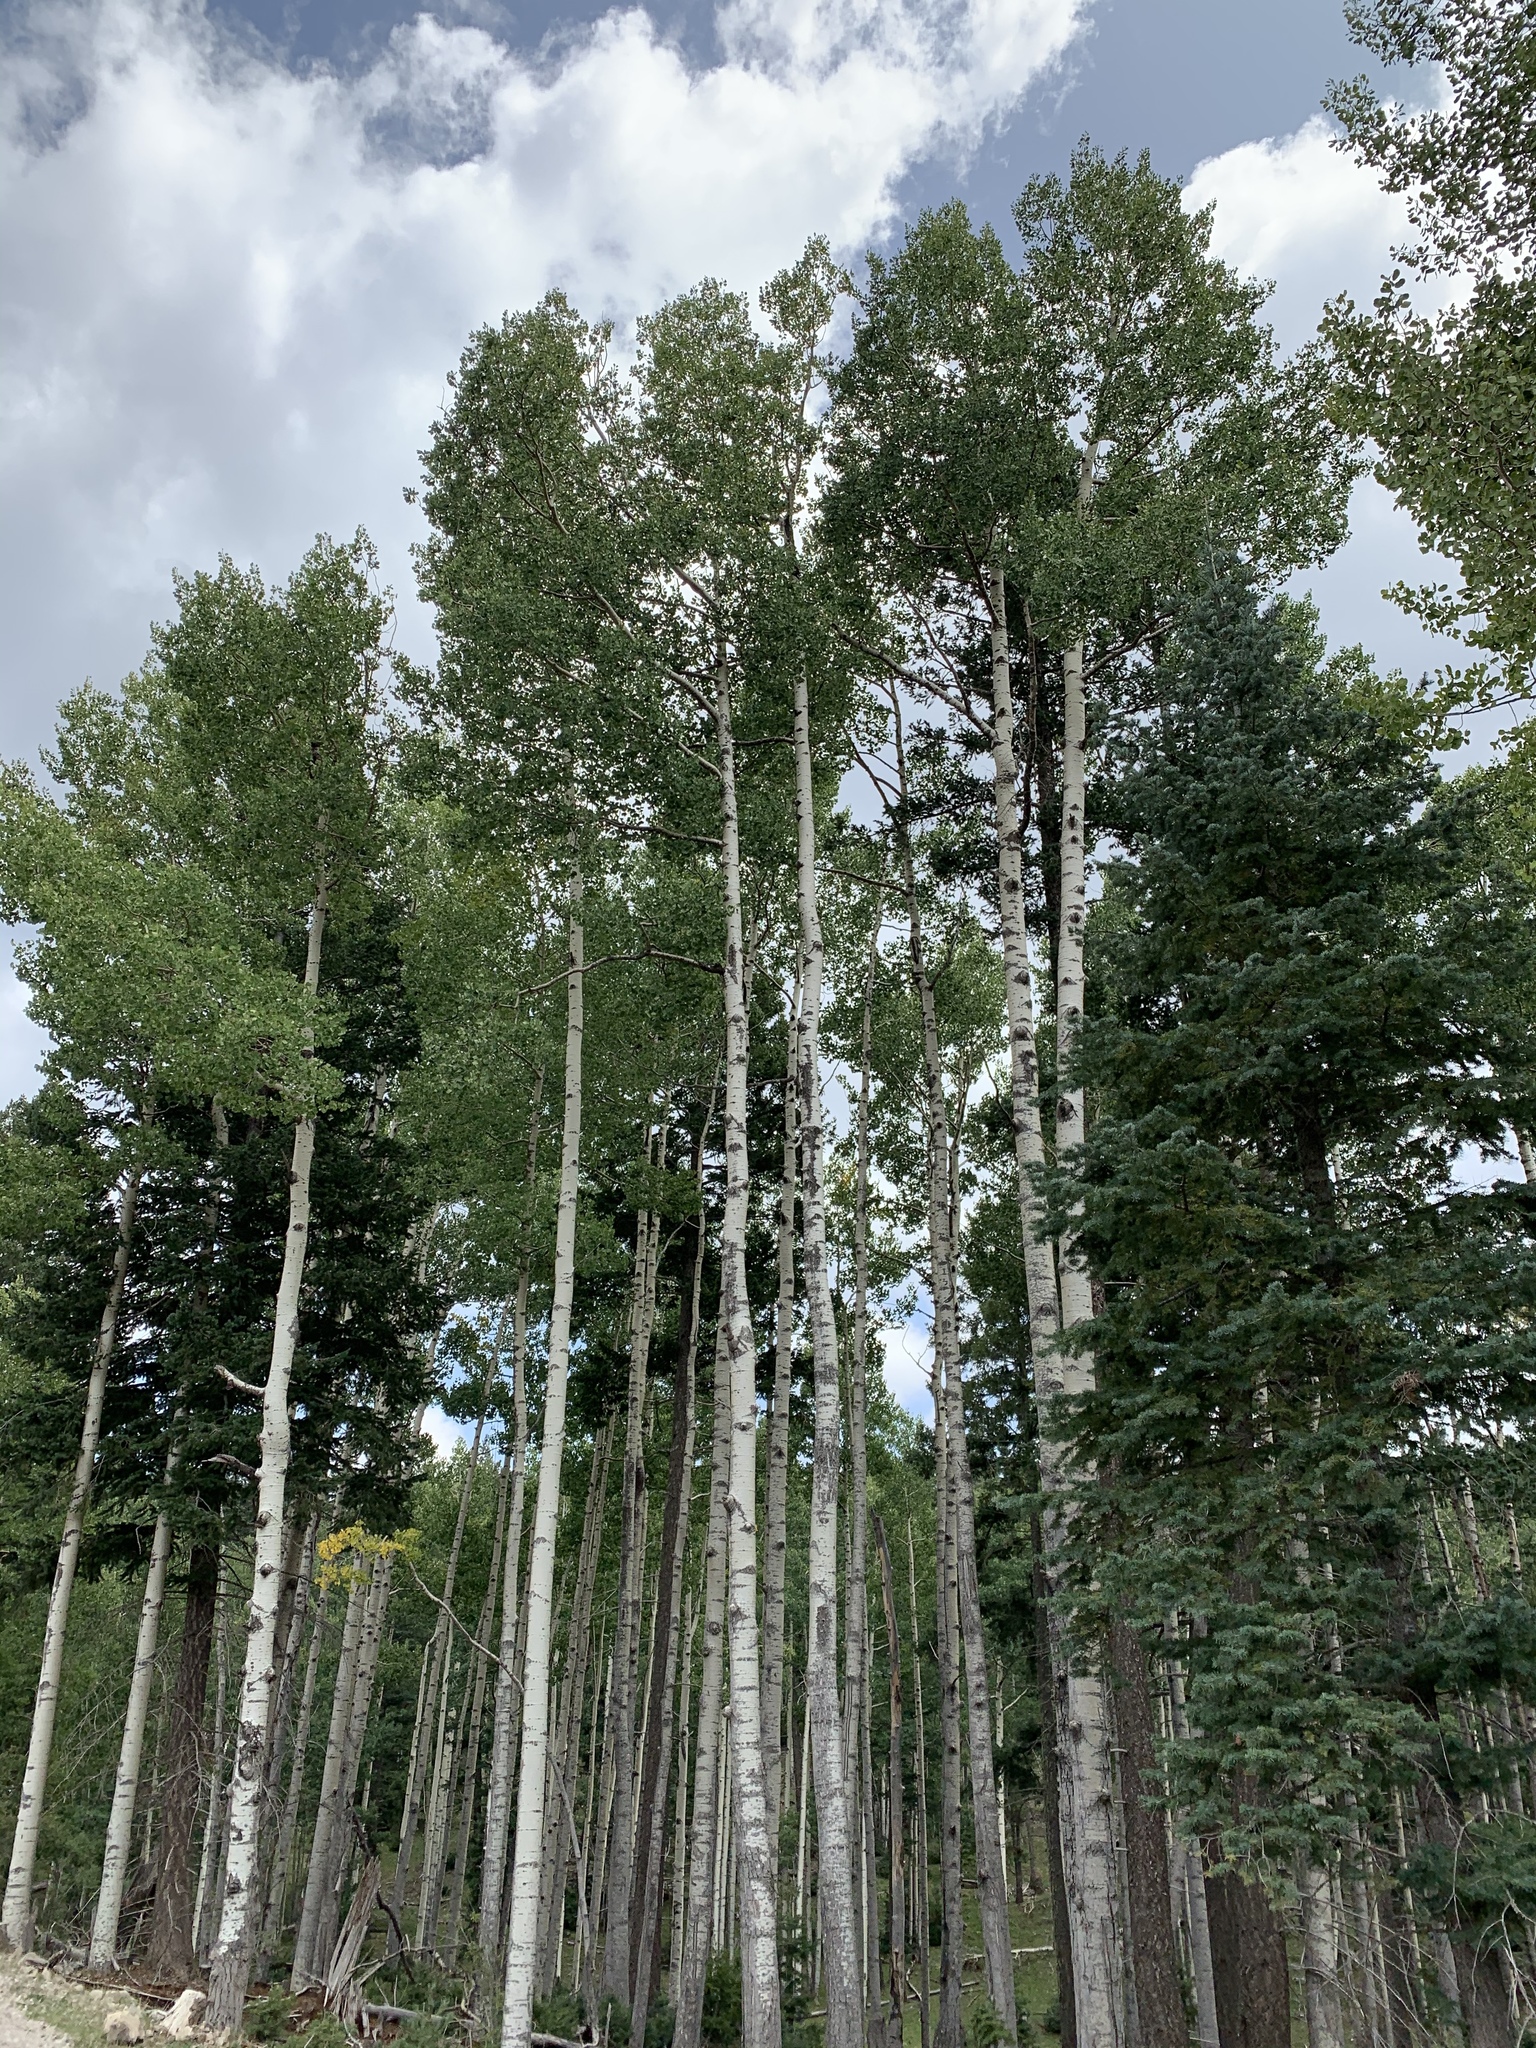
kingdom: Plantae
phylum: Tracheophyta
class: Magnoliopsida
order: Malpighiales
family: Salicaceae
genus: Populus
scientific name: Populus tremuloides
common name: Quaking aspen
